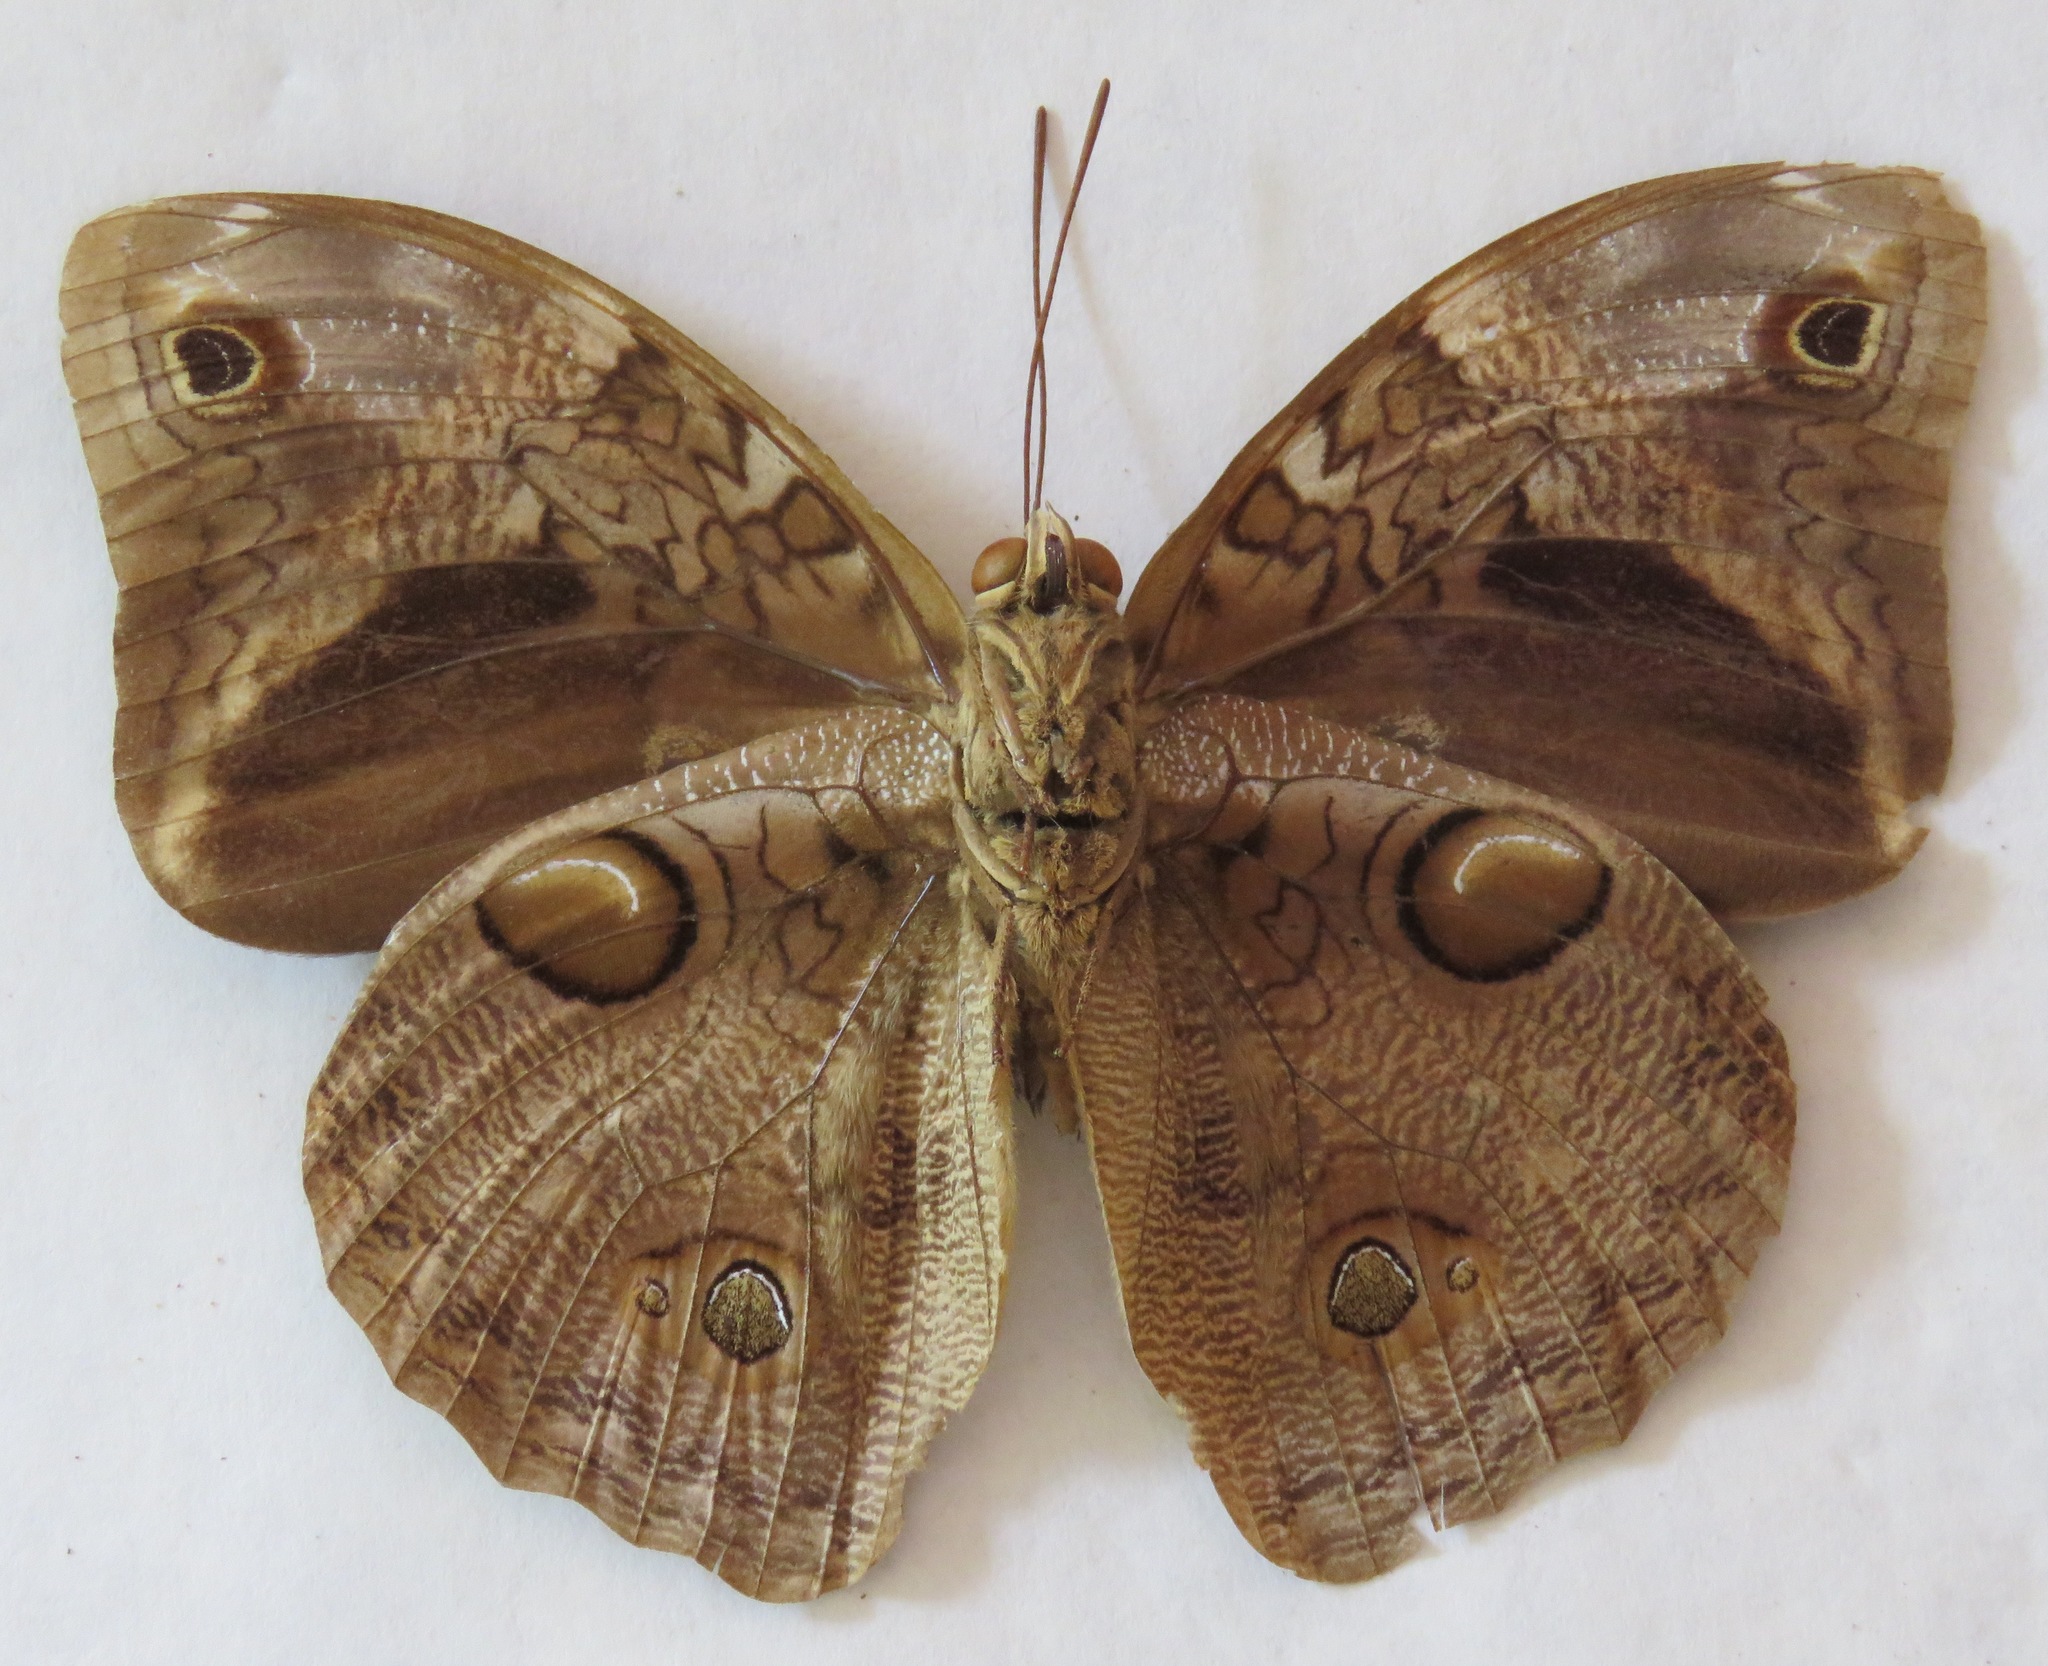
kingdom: Animalia
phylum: Arthropoda
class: Insecta
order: Lepidoptera
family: Nymphalidae
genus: Opsiphanes
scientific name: Opsiphanes cassiae
